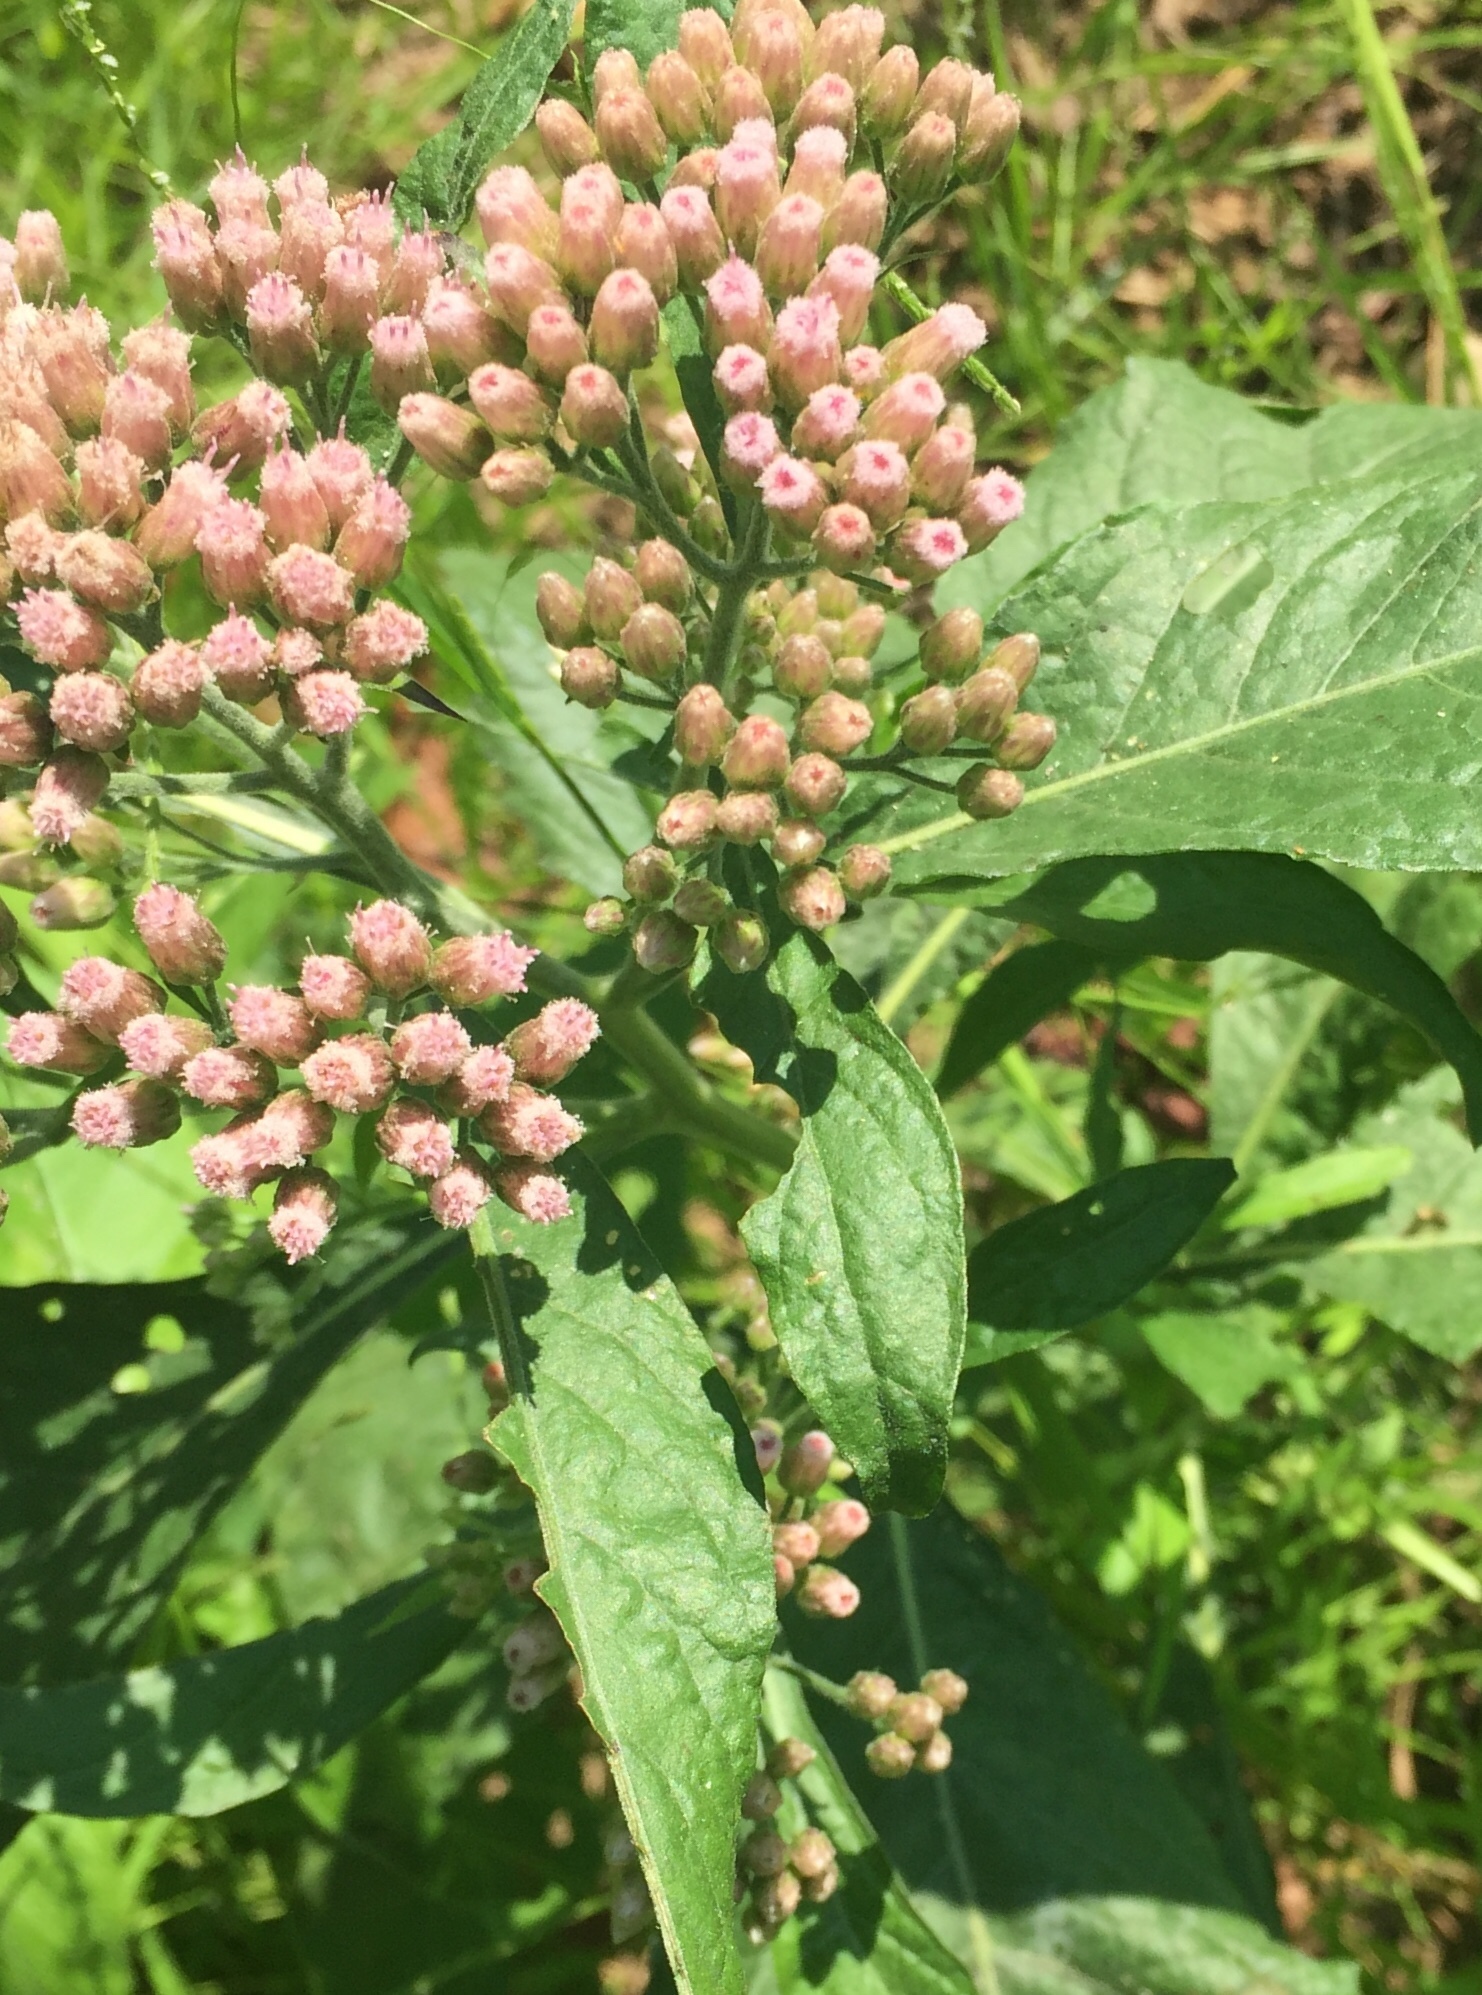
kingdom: Plantae
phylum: Tracheophyta
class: Magnoliopsida
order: Asterales
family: Asteraceae
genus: Pluchea
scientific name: Pluchea camphorata
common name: Camphor pluchea
